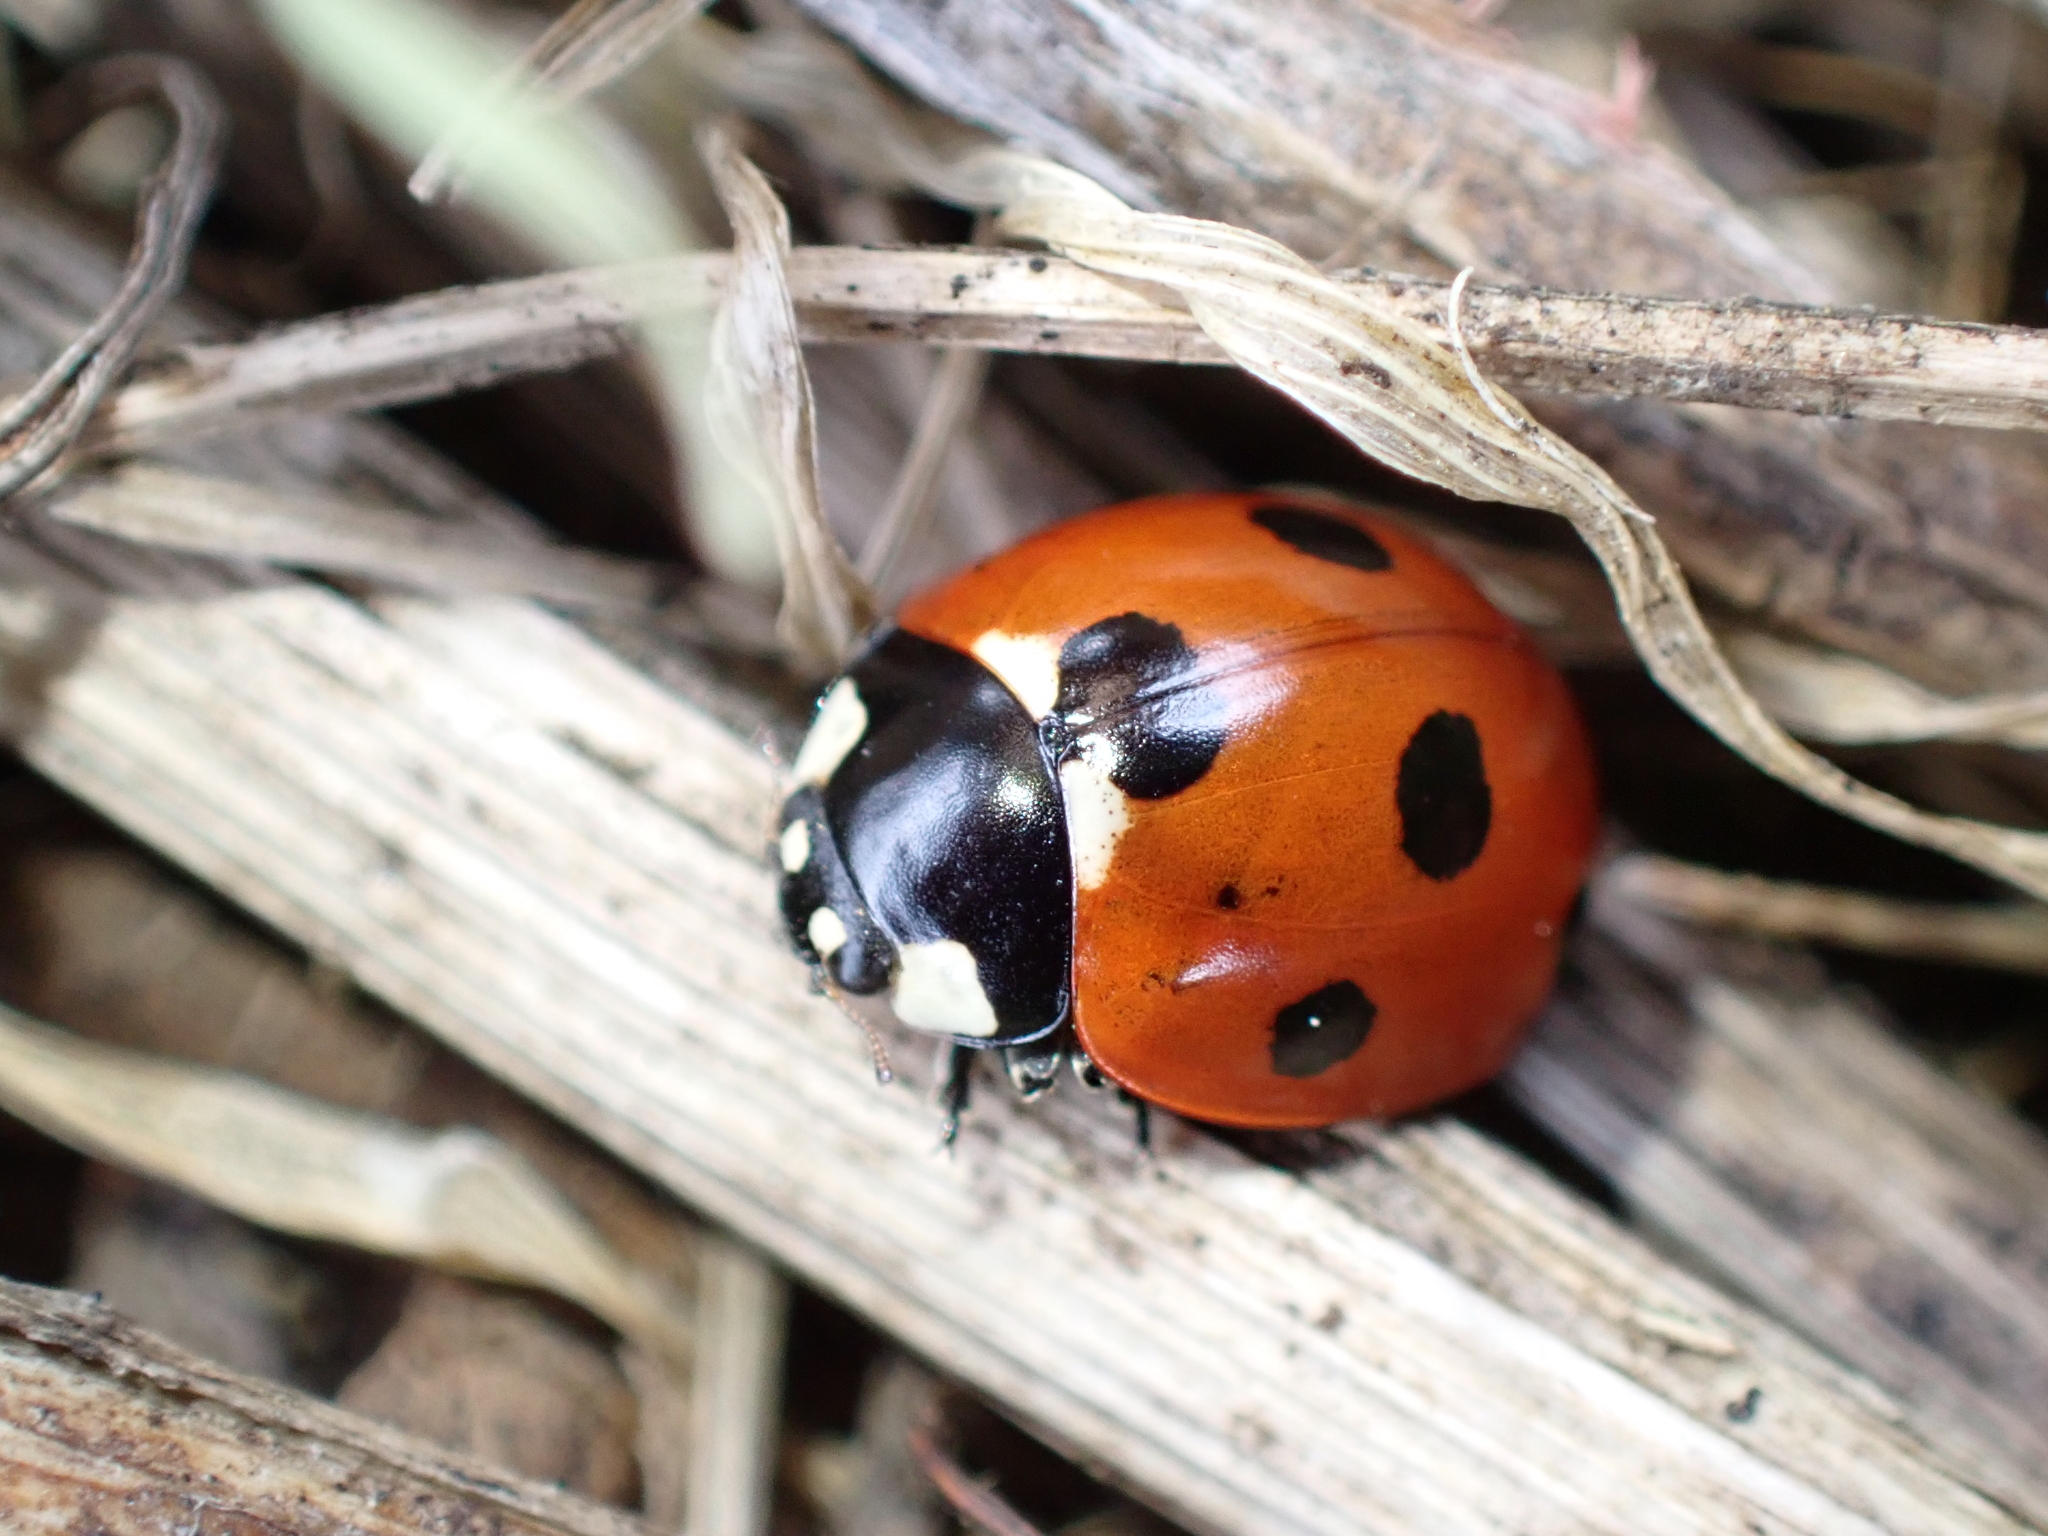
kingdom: Animalia
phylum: Arthropoda
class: Insecta
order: Coleoptera
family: Coccinellidae
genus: Coccinella
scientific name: Coccinella septempunctata
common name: Sevenspotted lady beetle
